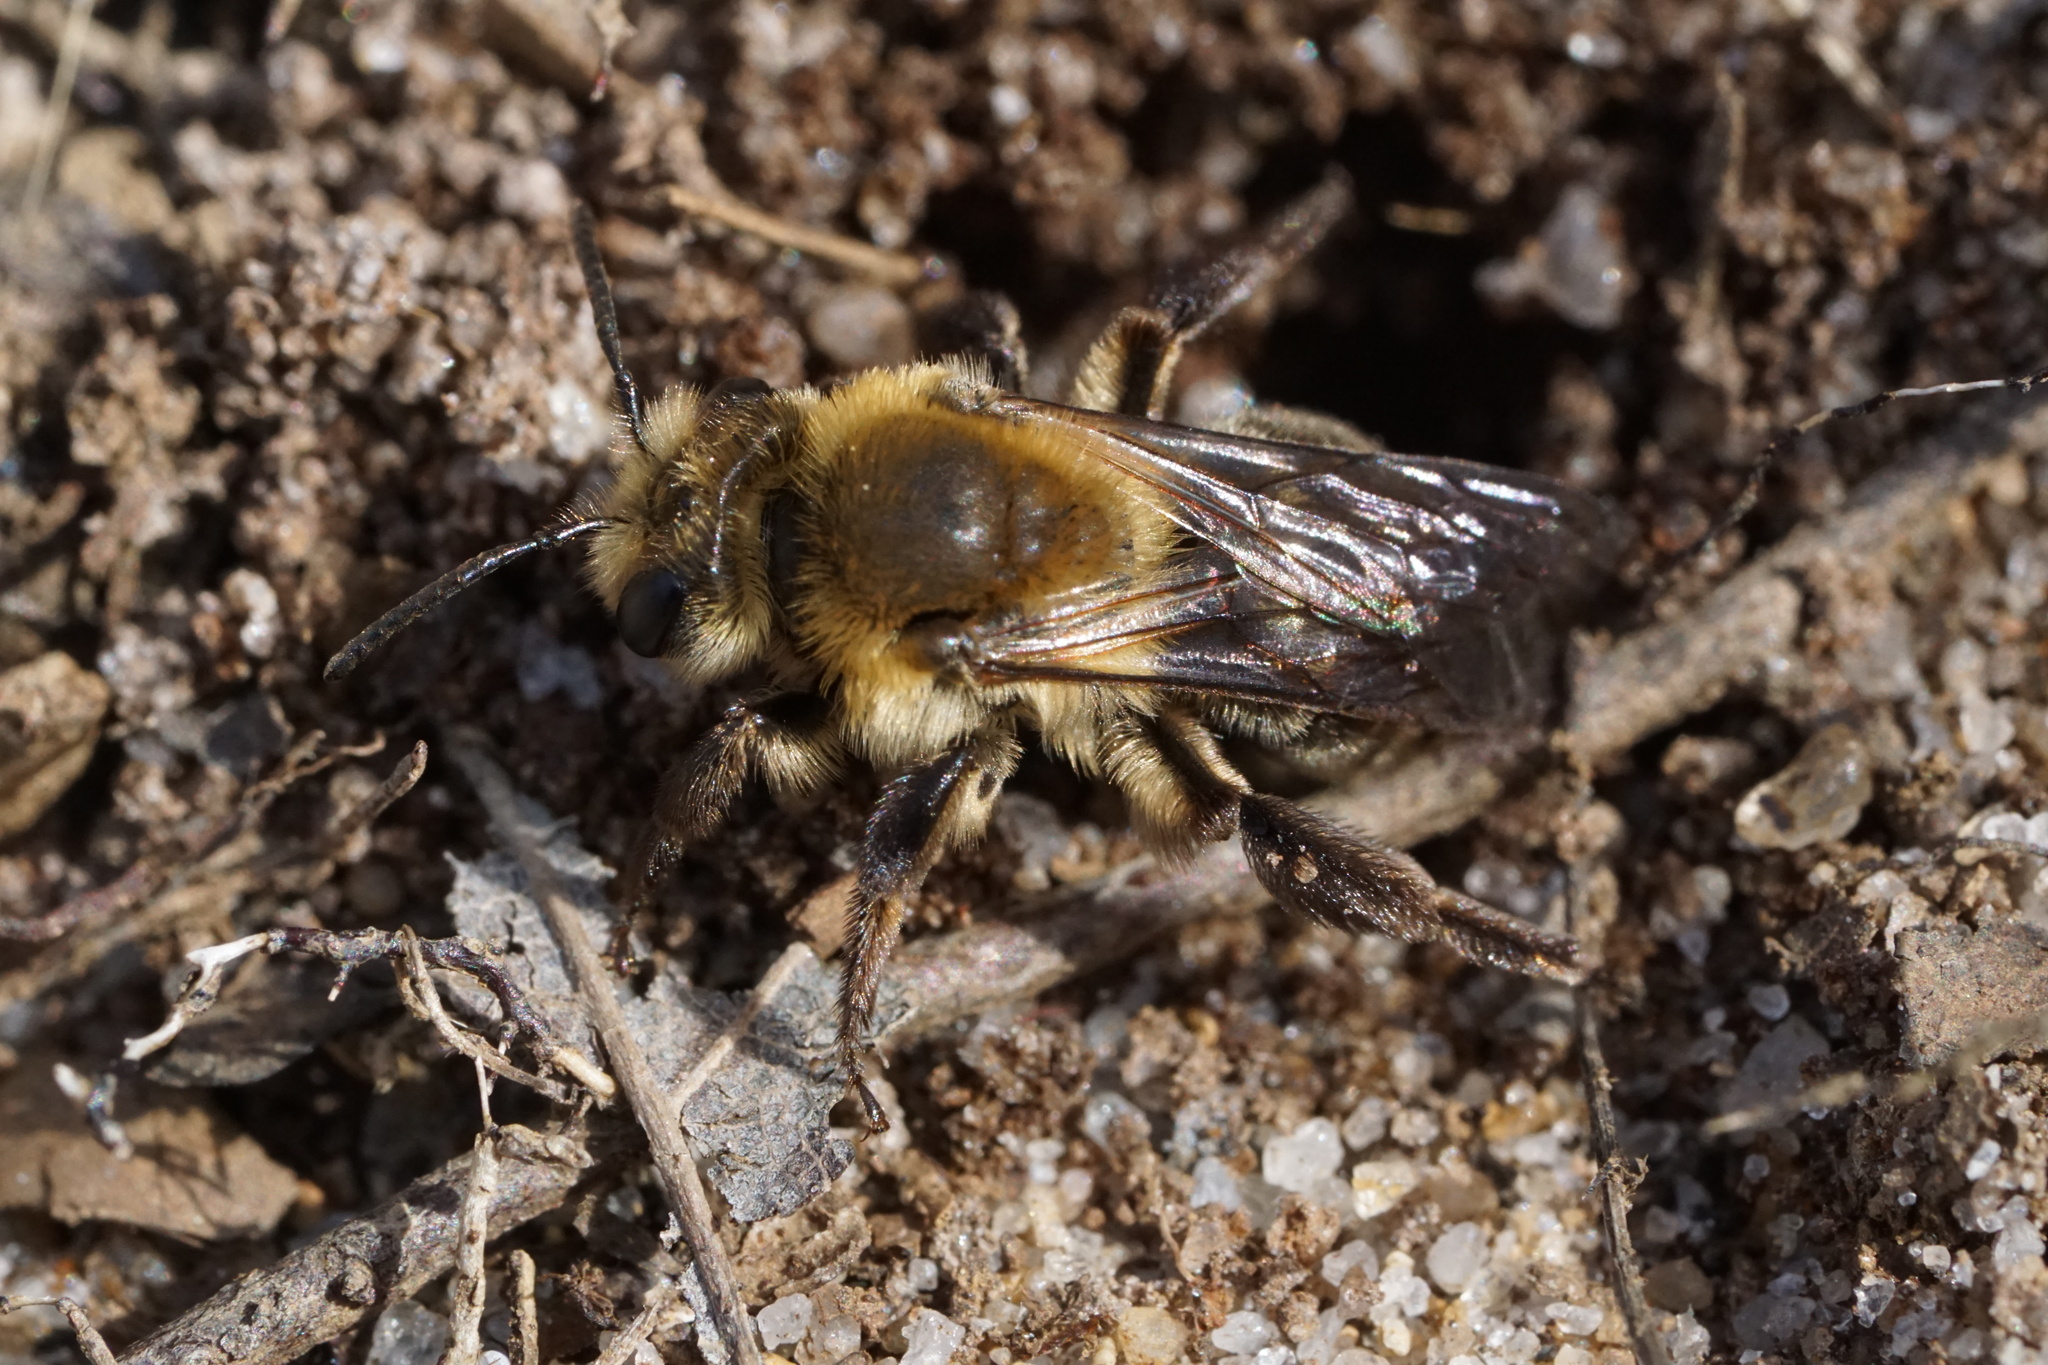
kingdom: Animalia
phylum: Arthropoda
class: Insecta
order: Hymenoptera
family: Andrenidae
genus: Andrena
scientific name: Andrena vicina
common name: Neighborly mining bee
